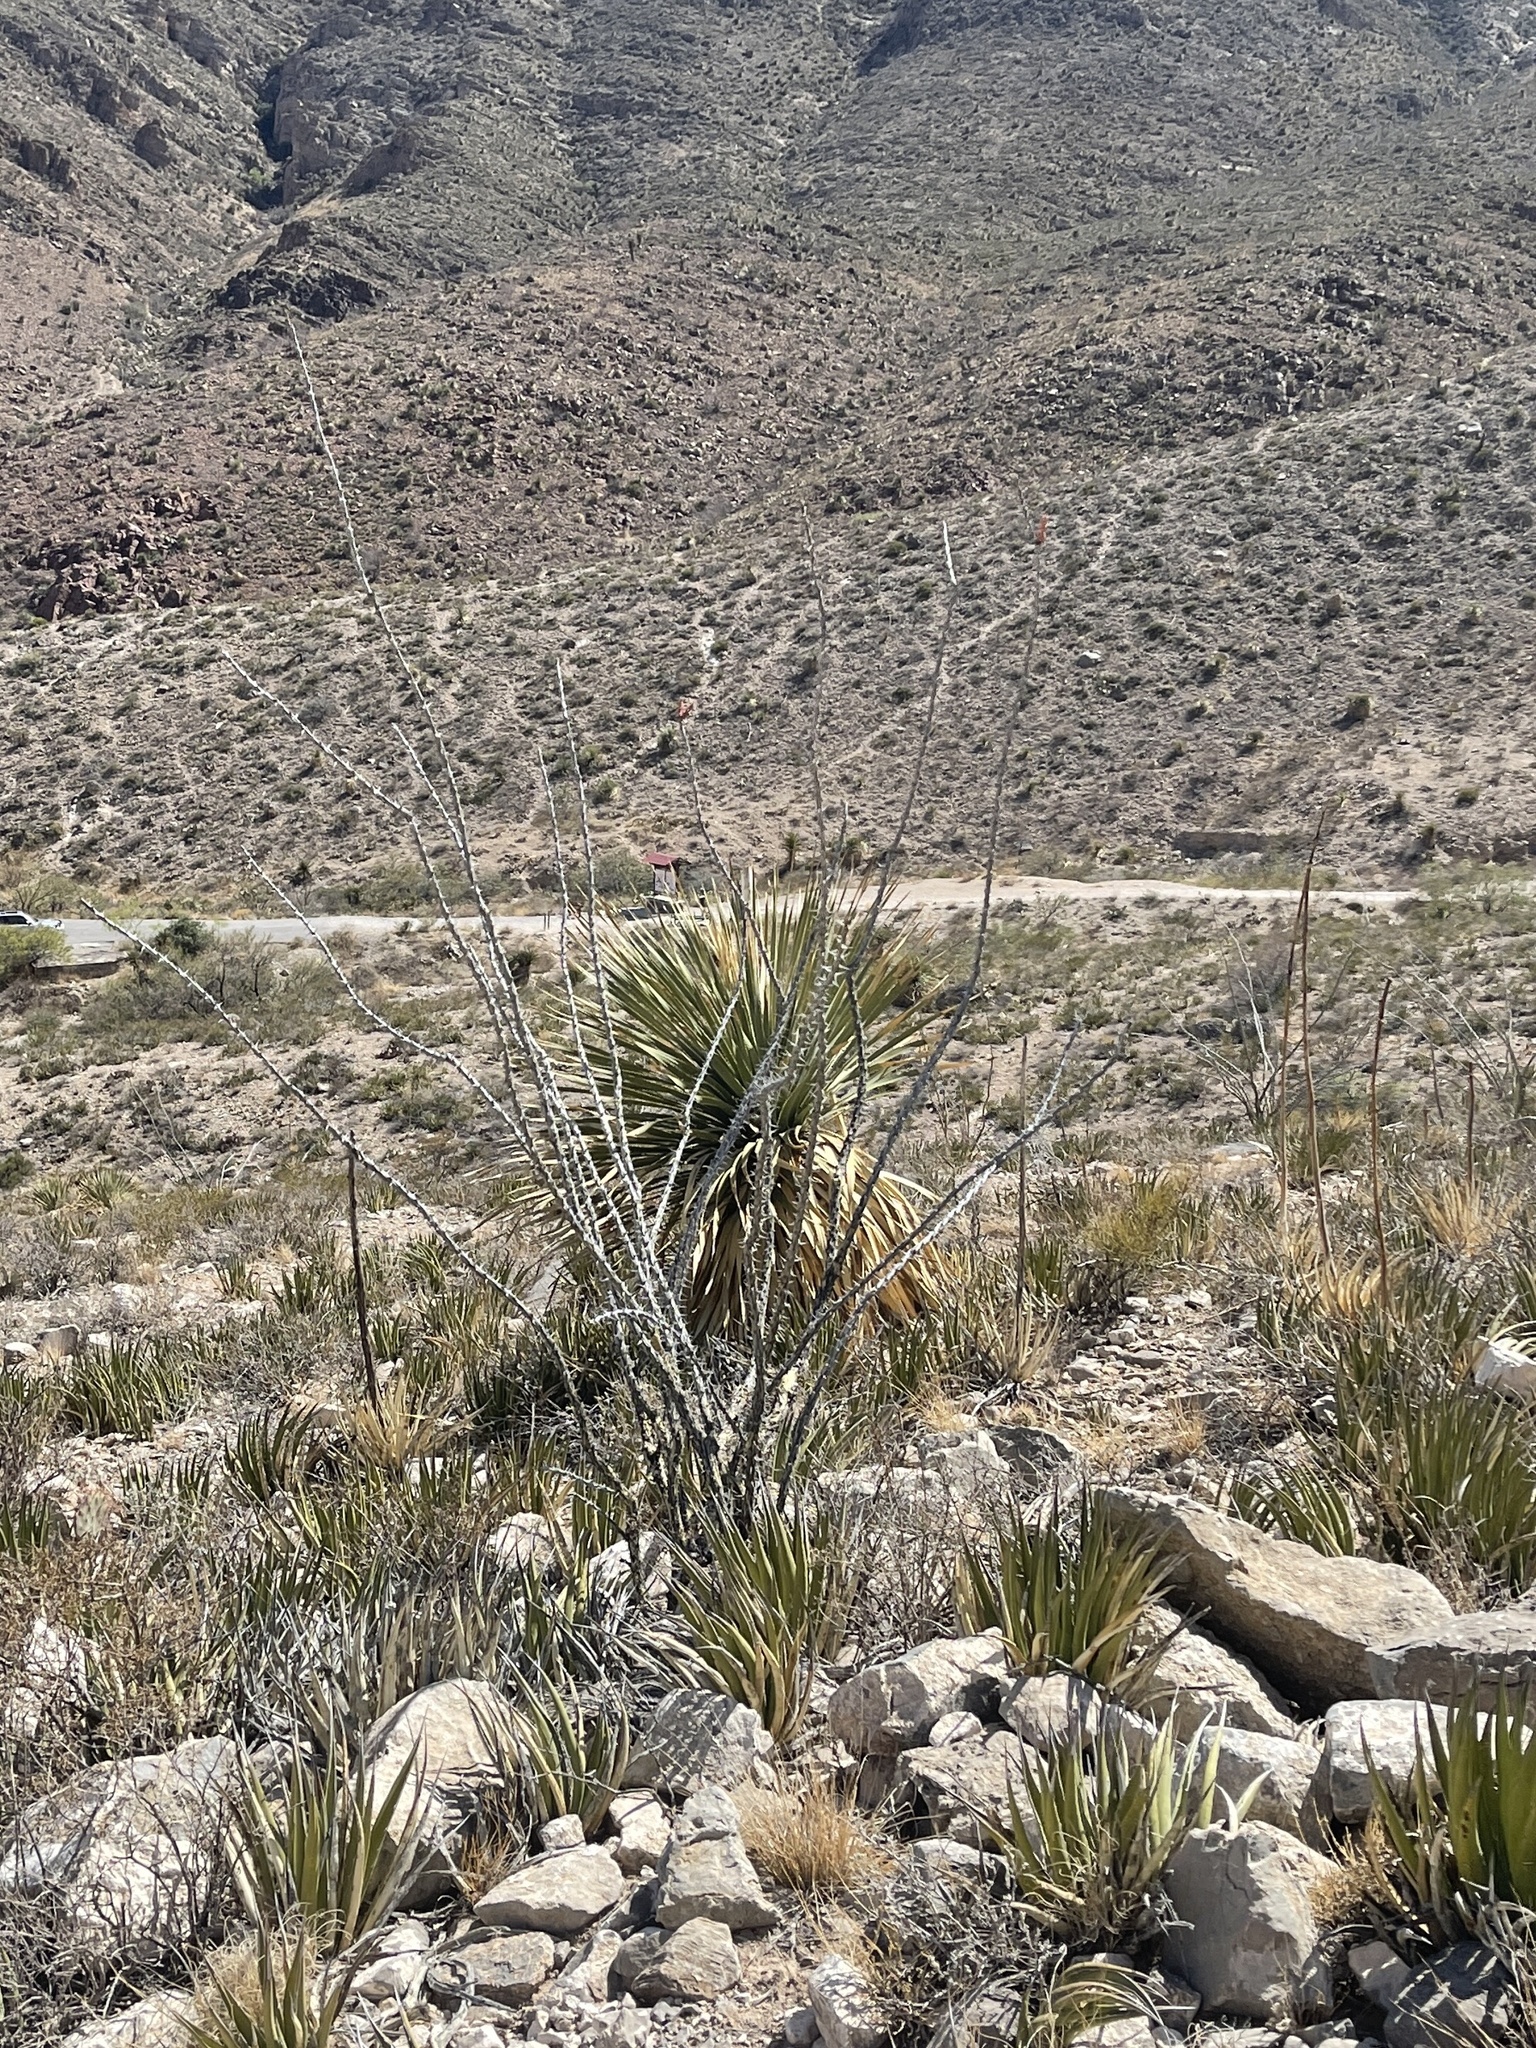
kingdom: Plantae
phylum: Tracheophyta
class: Magnoliopsida
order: Ericales
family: Fouquieriaceae
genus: Fouquieria
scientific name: Fouquieria splendens
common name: Vine-cactus
